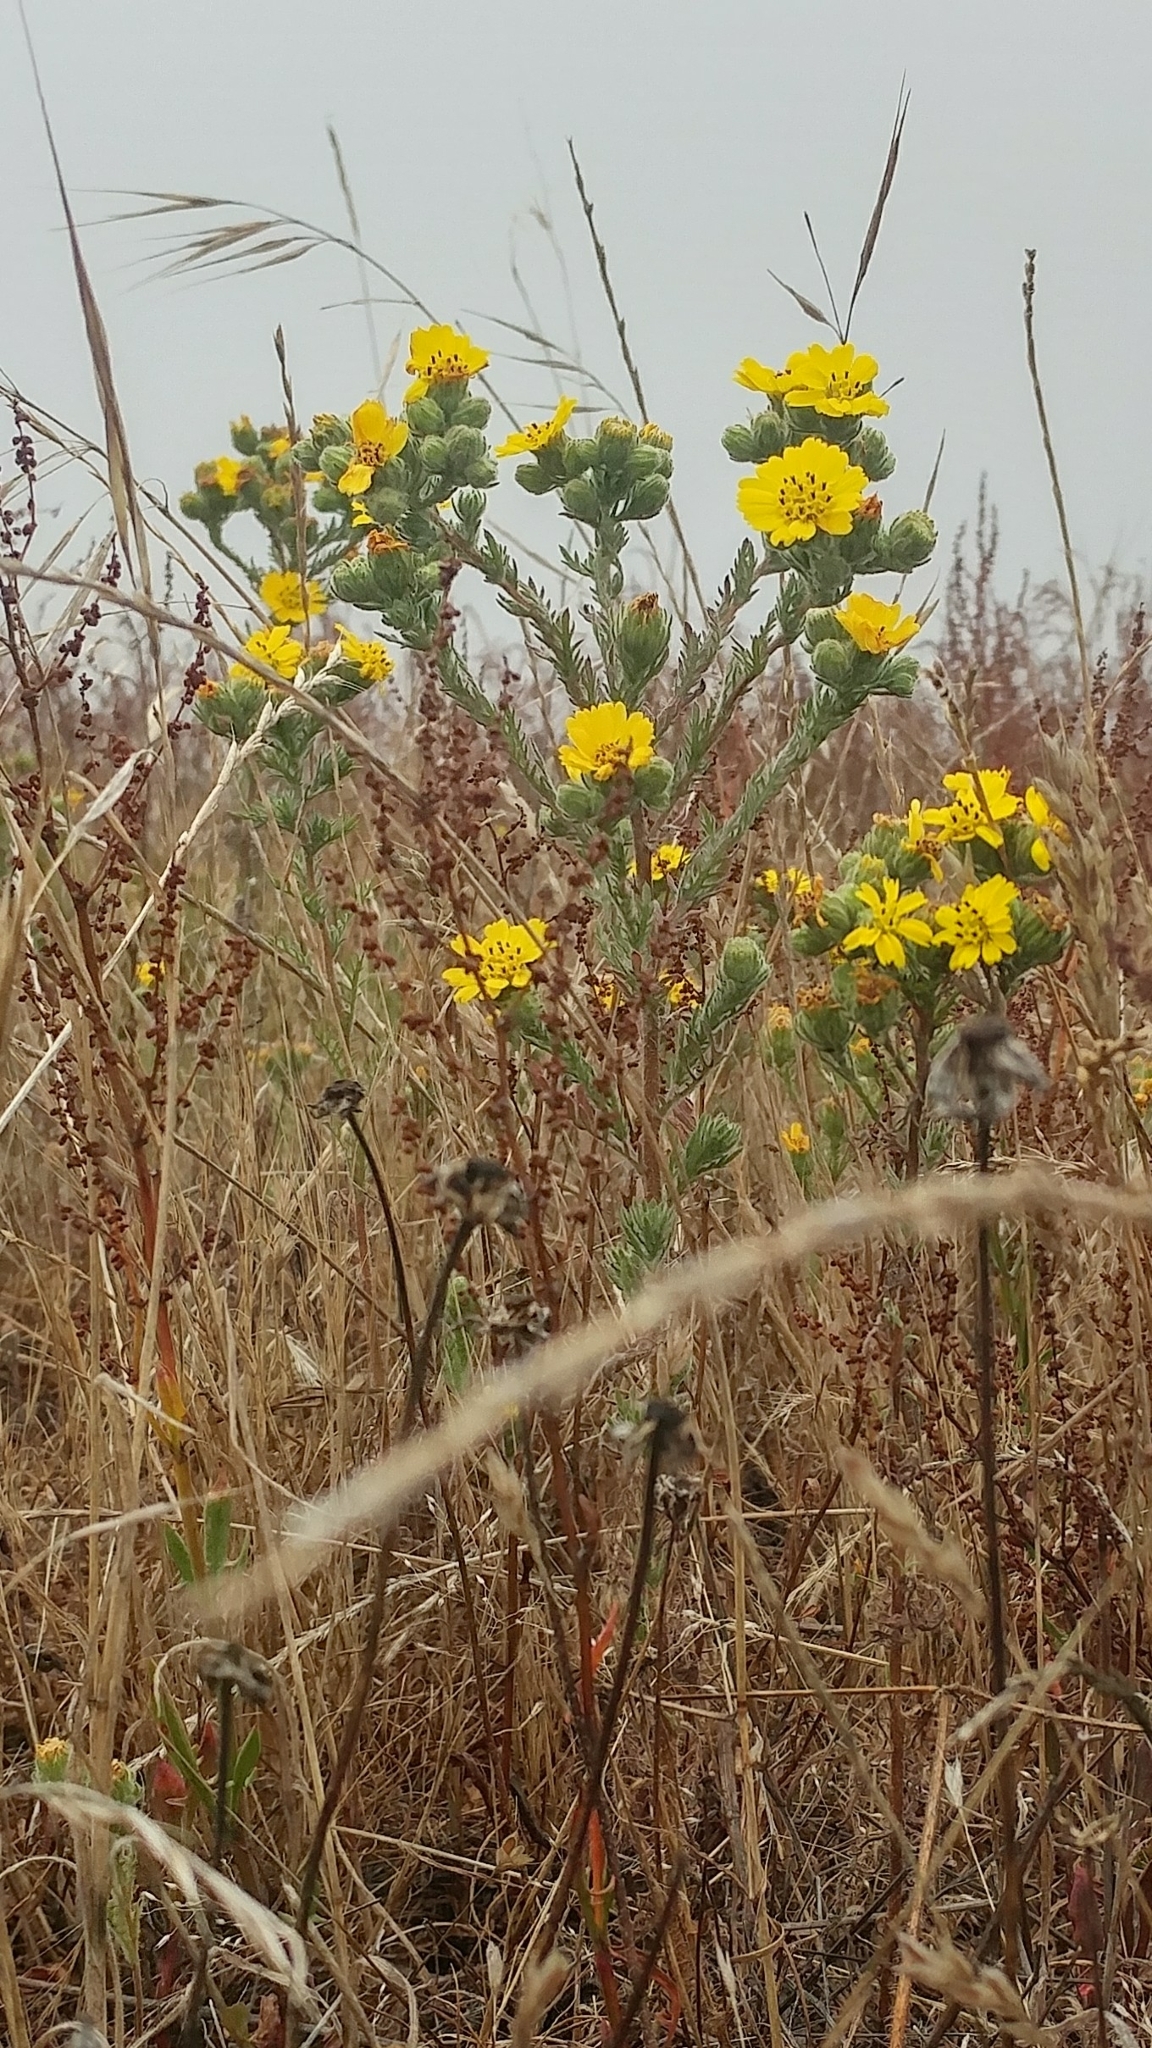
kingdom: Plantae
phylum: Tracheophyta
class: Magnoliopsida
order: Asterales
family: Asteraceae
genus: Deinandra
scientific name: Deinandra increscens
